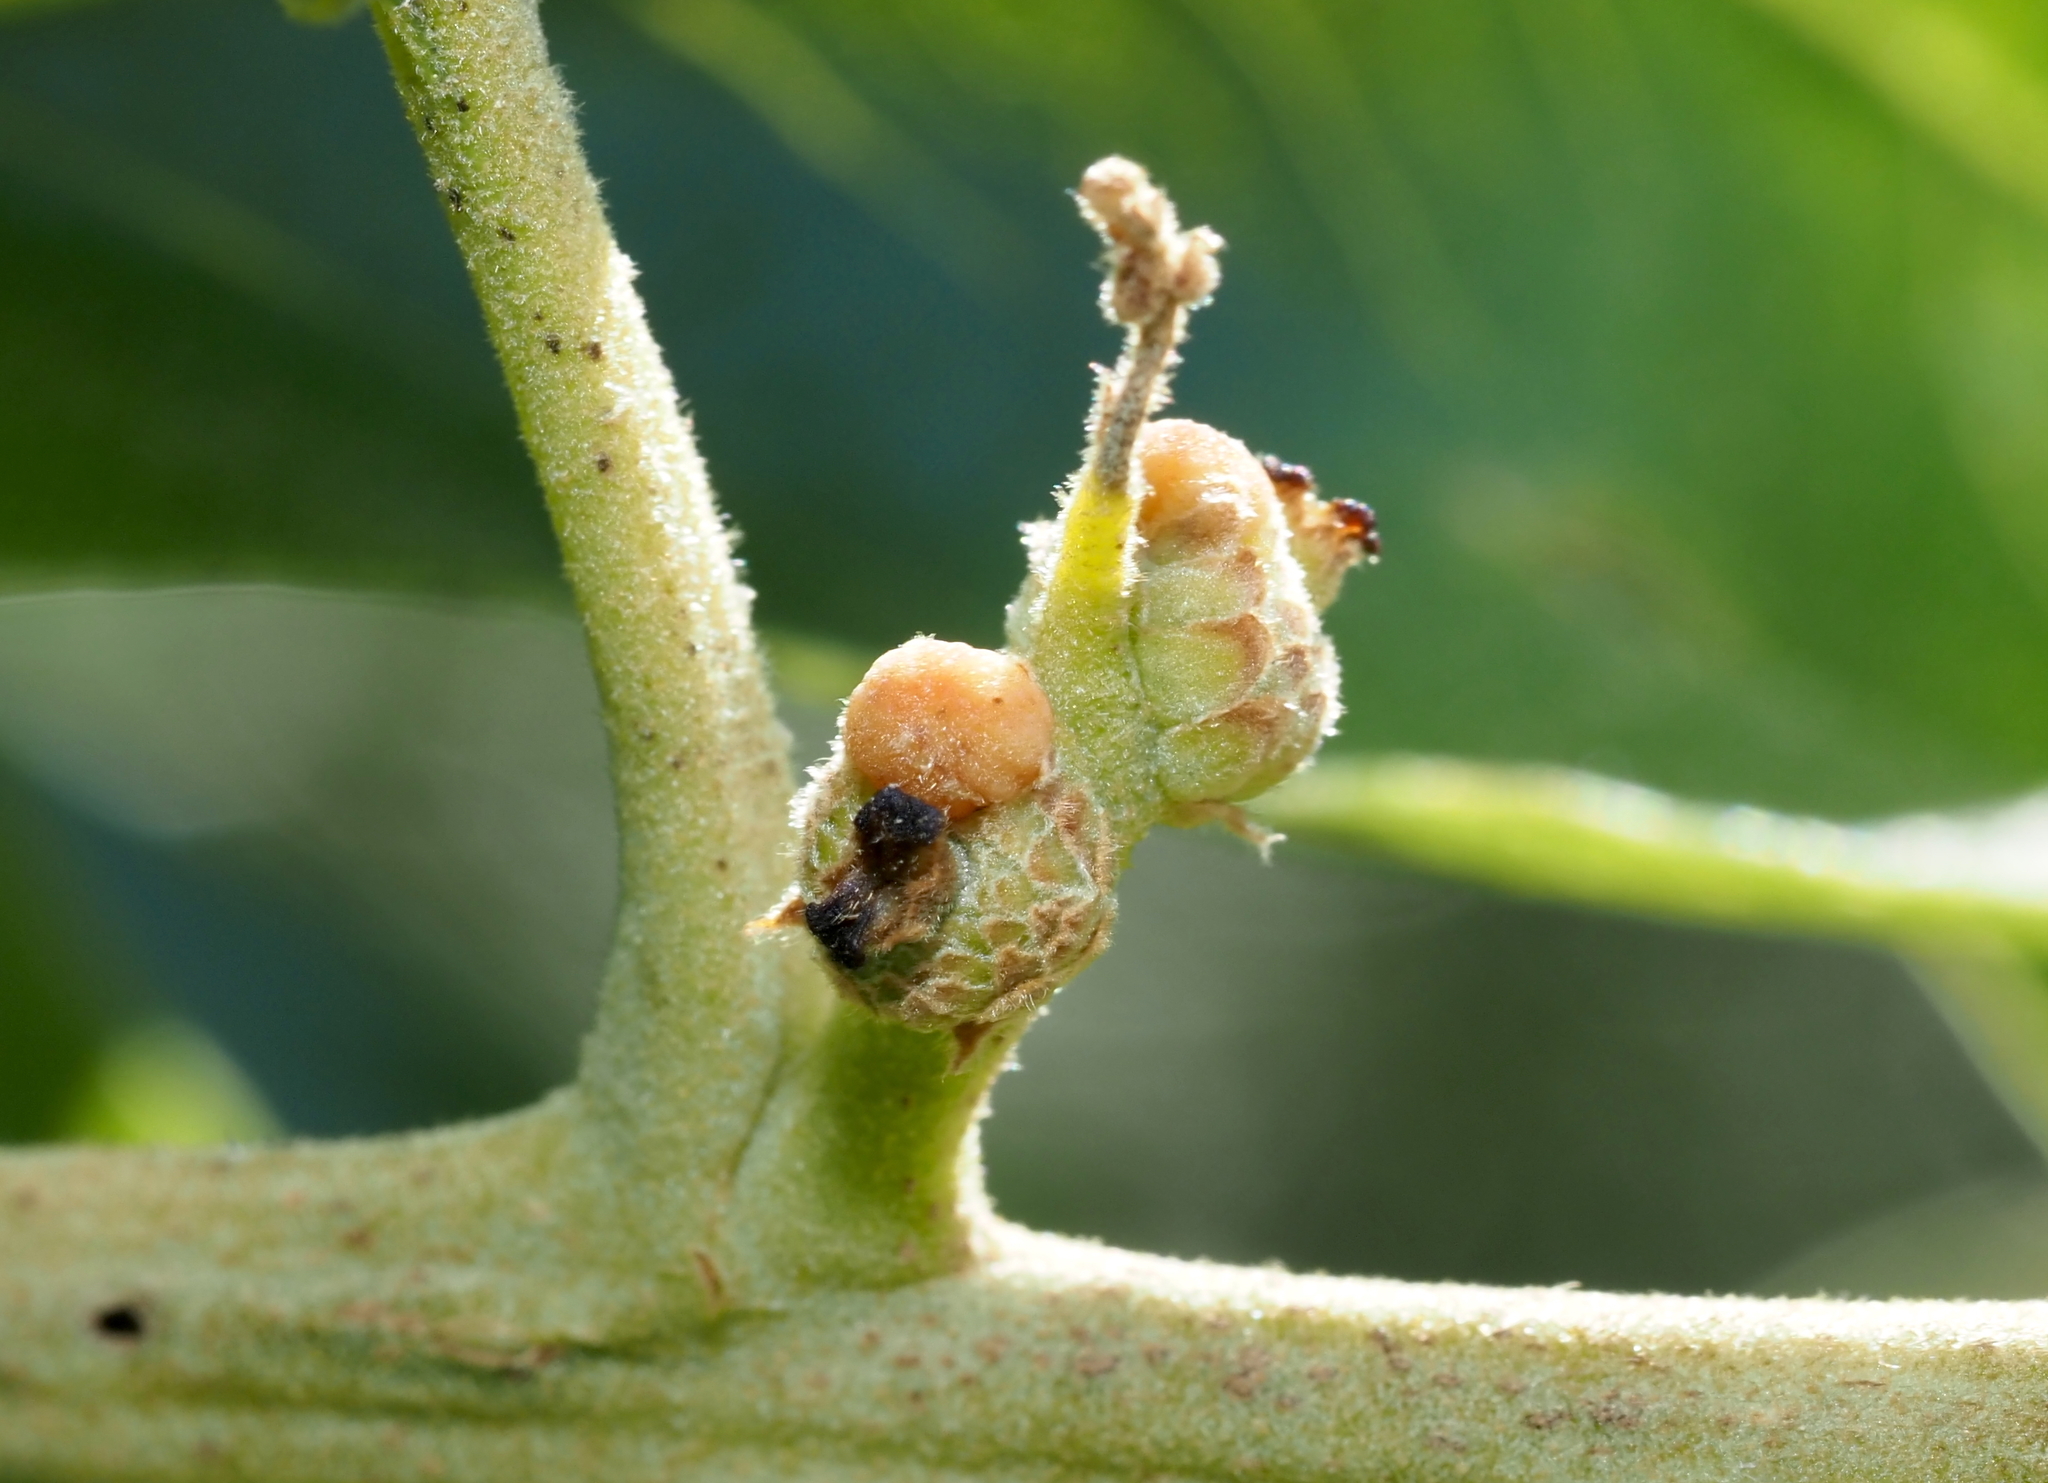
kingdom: Animalia
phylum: Arthropoda
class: Insecta
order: Hymenoptera
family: Cynipidae
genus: Callirhytis
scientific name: Callirhytis
